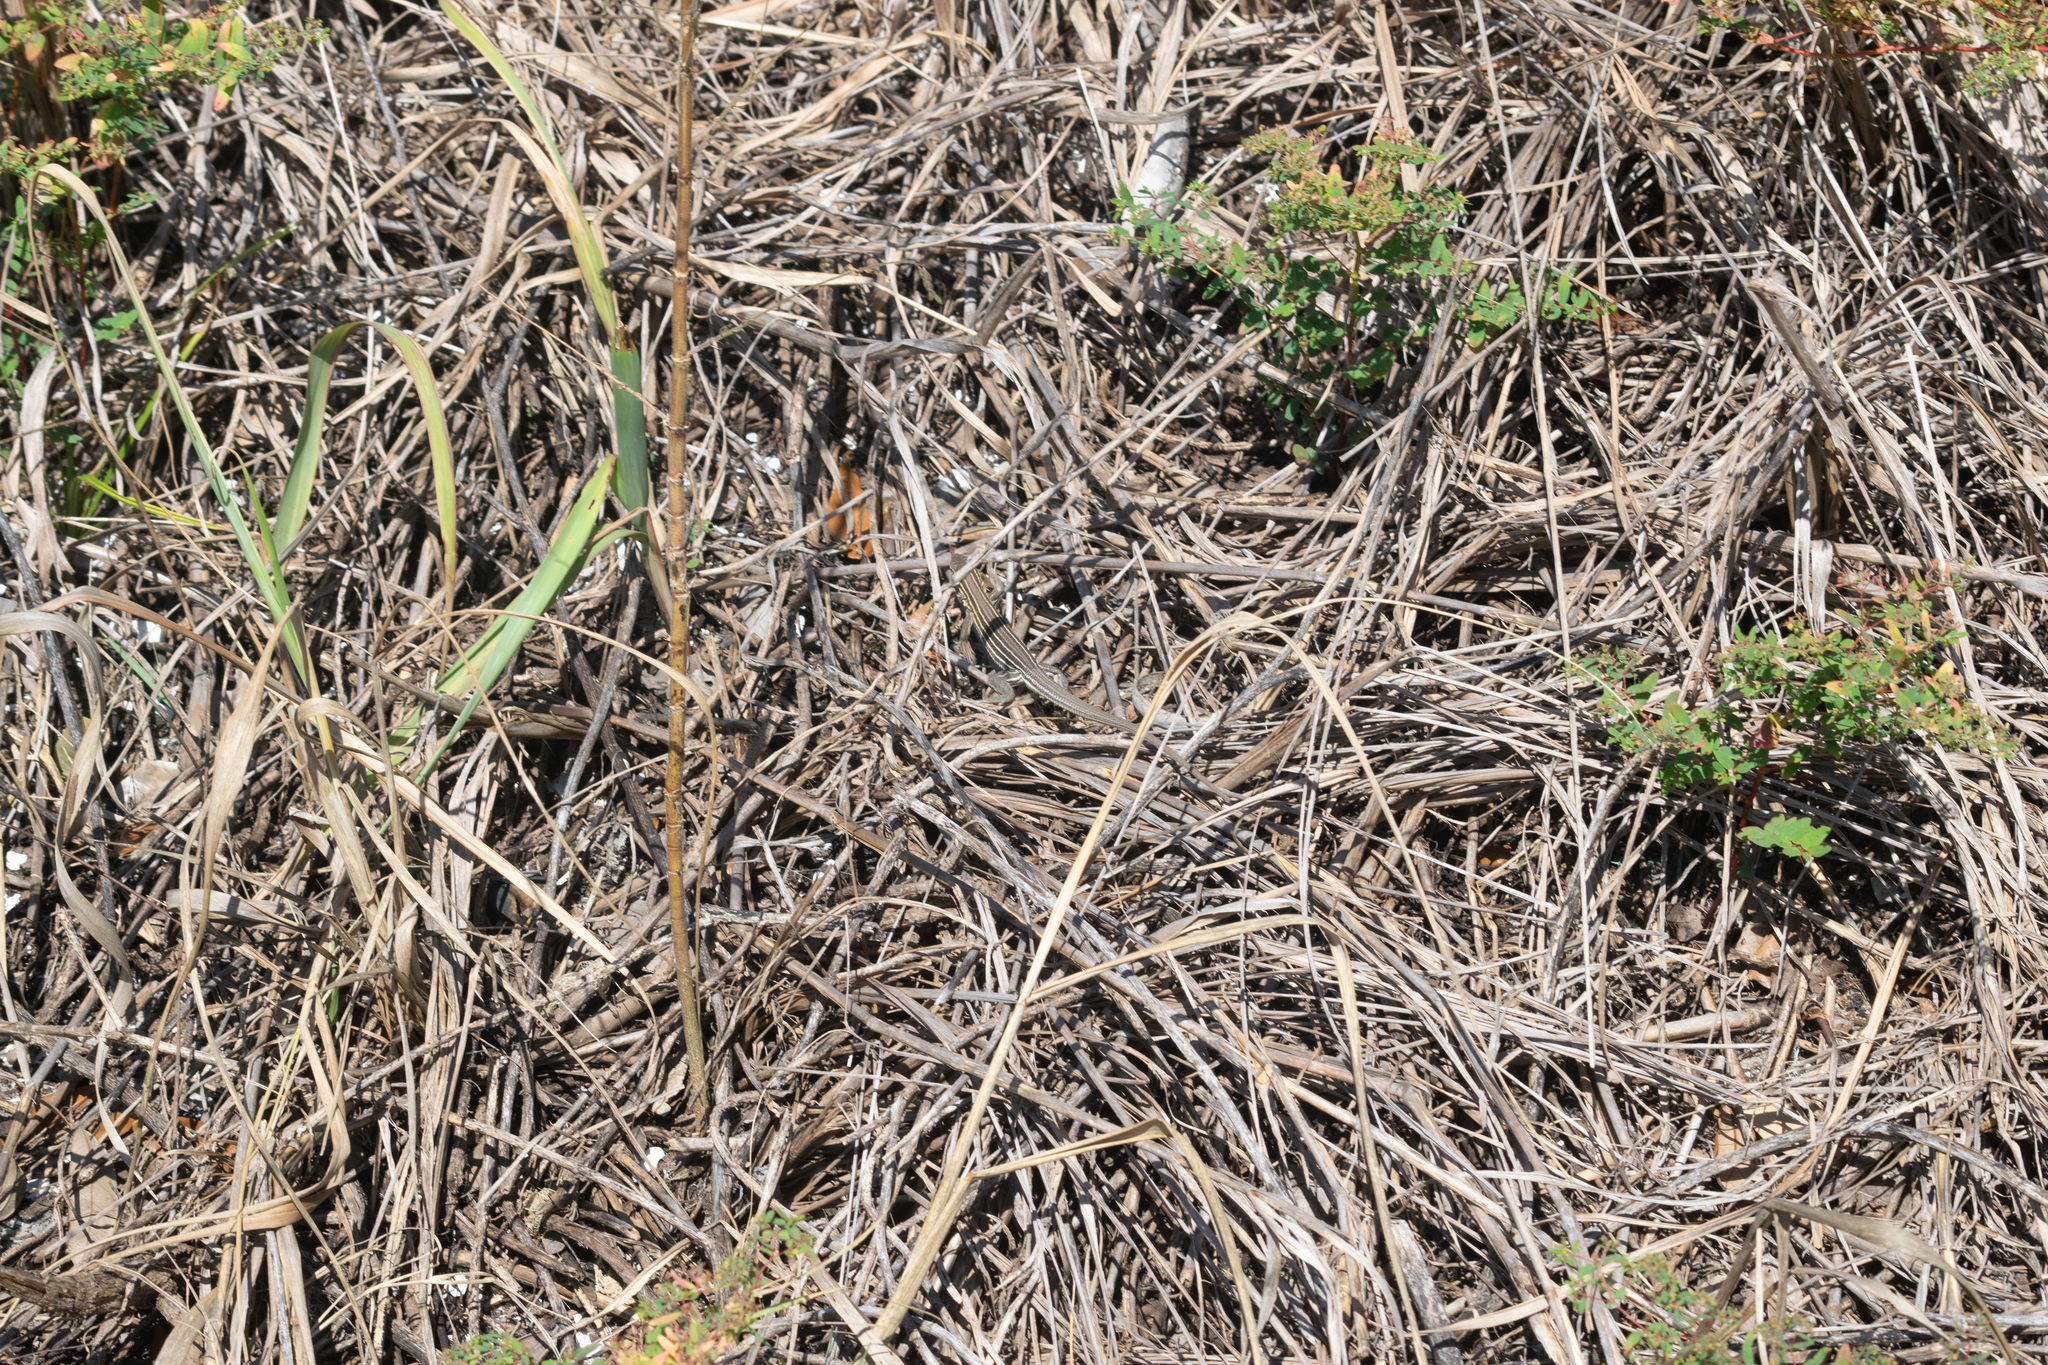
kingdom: Animalia
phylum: Chordata
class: Squamata
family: Teiidae
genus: Aspidoscelis
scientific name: Aspidoscelis sexlineatus
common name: Six-lined racerunner
